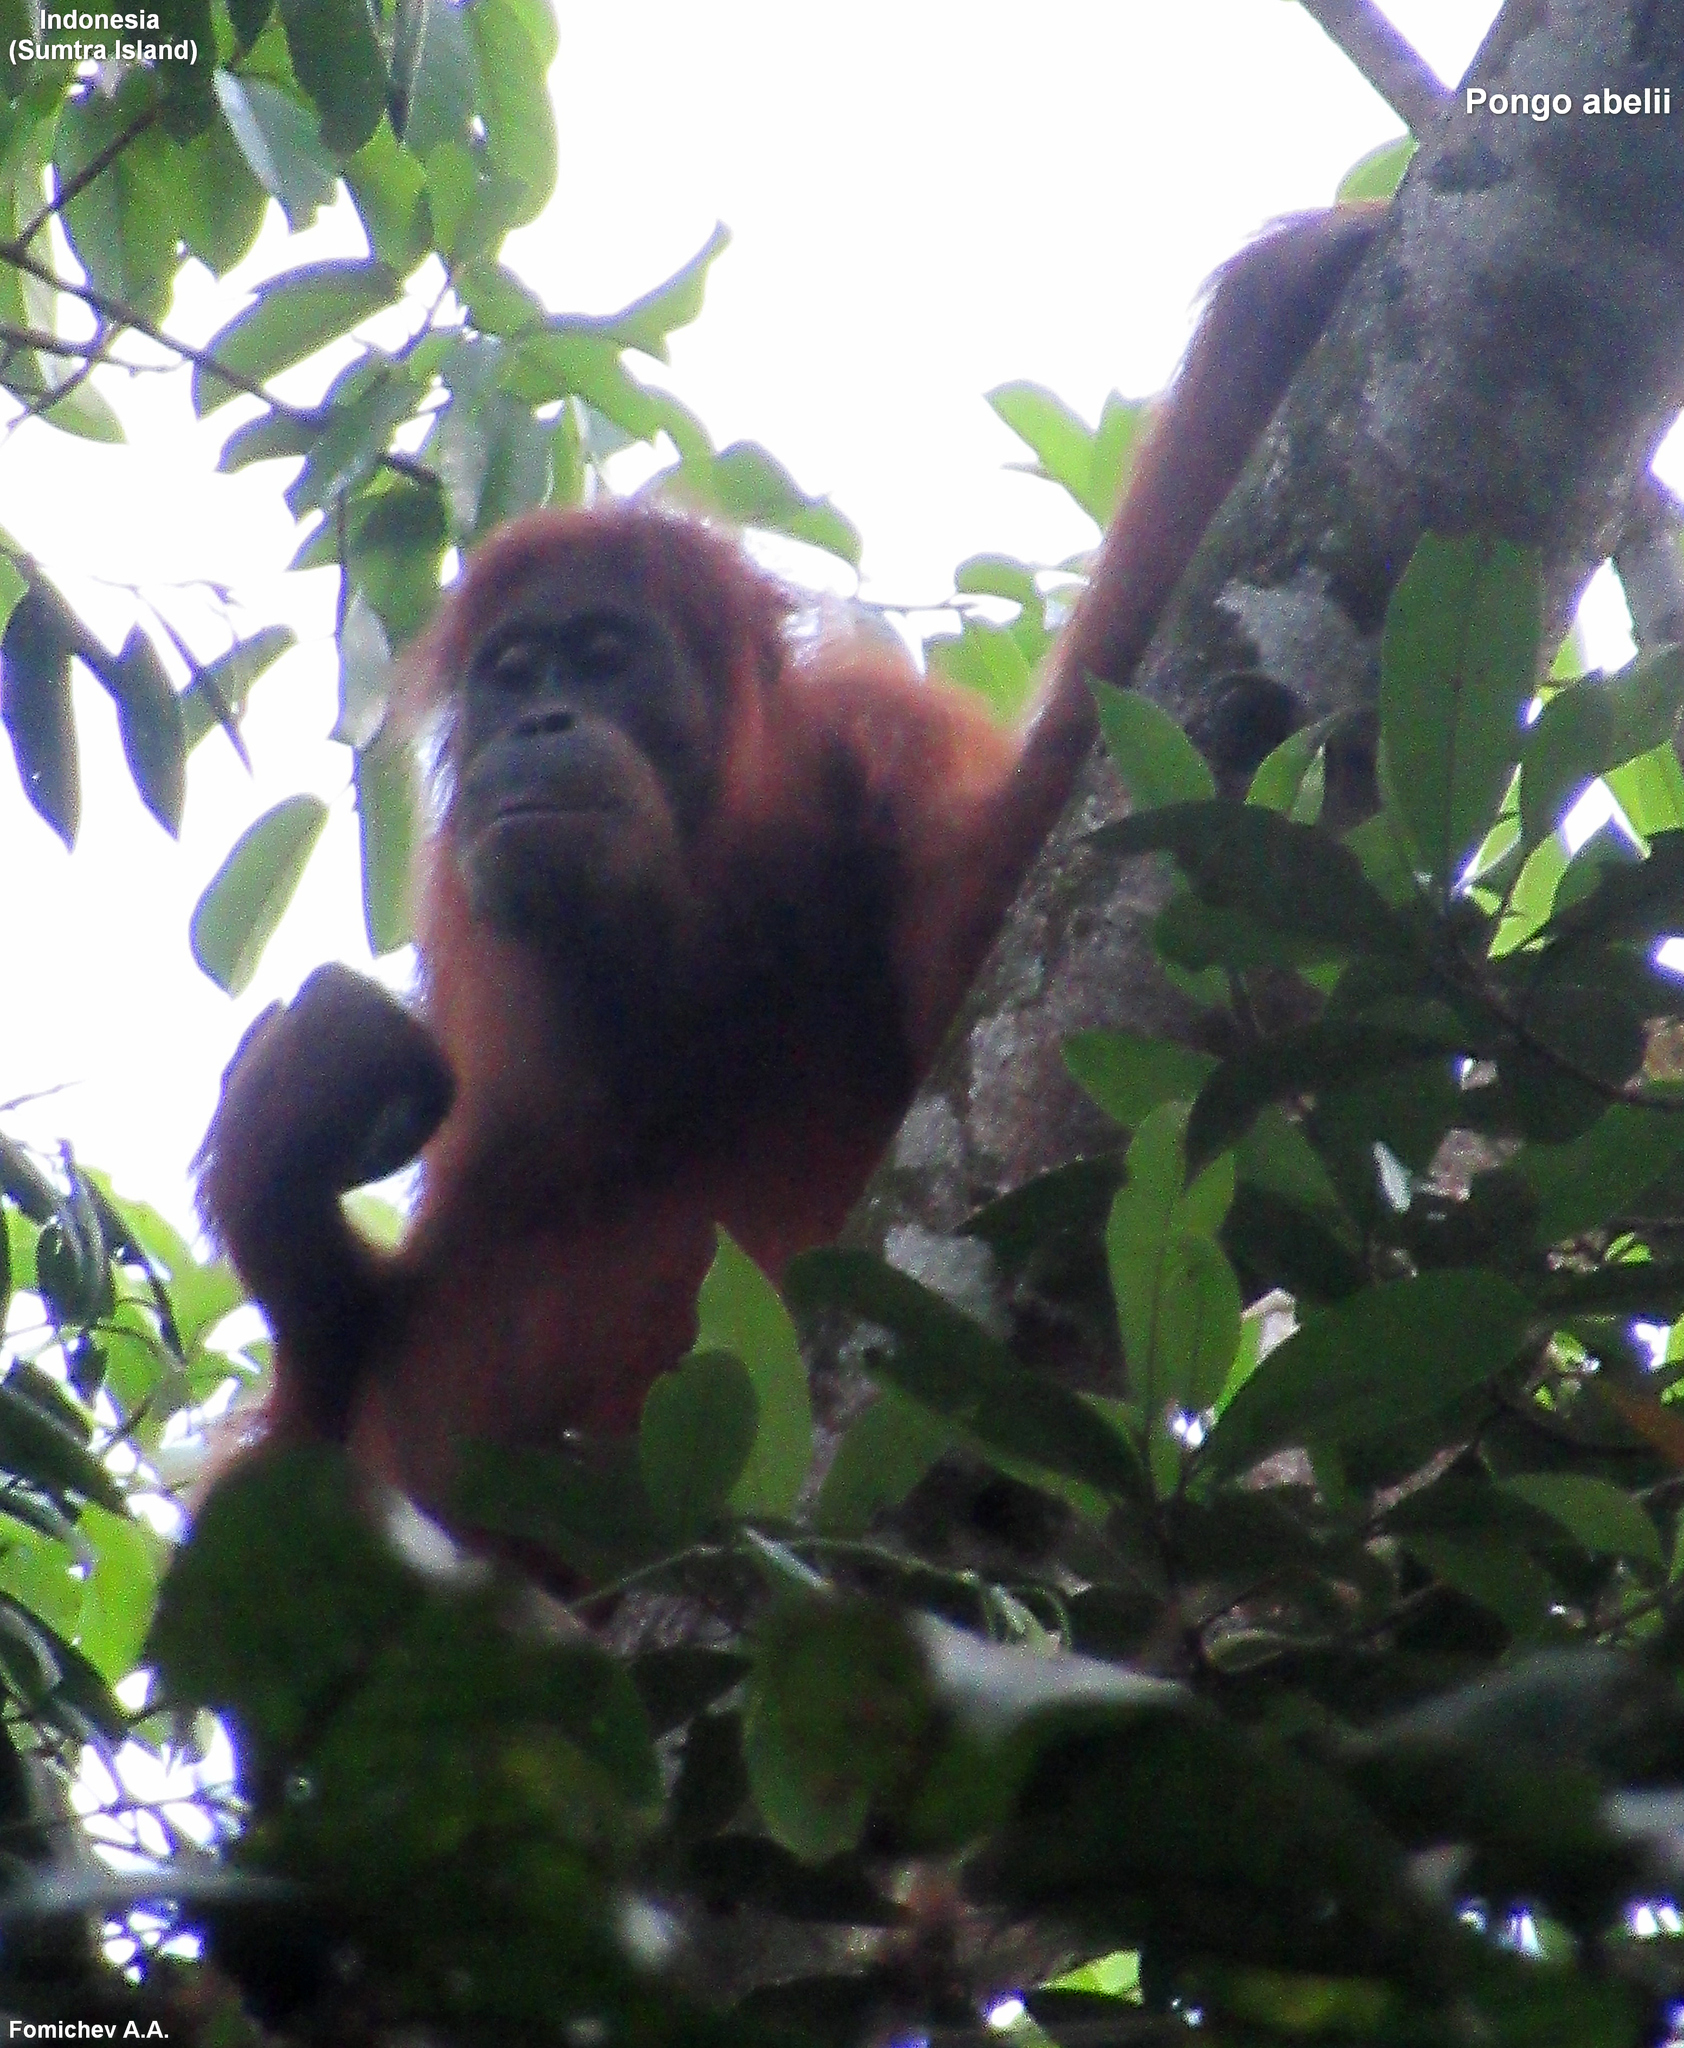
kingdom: Animalia
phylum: Chordata
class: Mammalia
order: Primates
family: Hominidae
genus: Pongo
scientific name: Pongo abelii
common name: Sumatran orangutan
